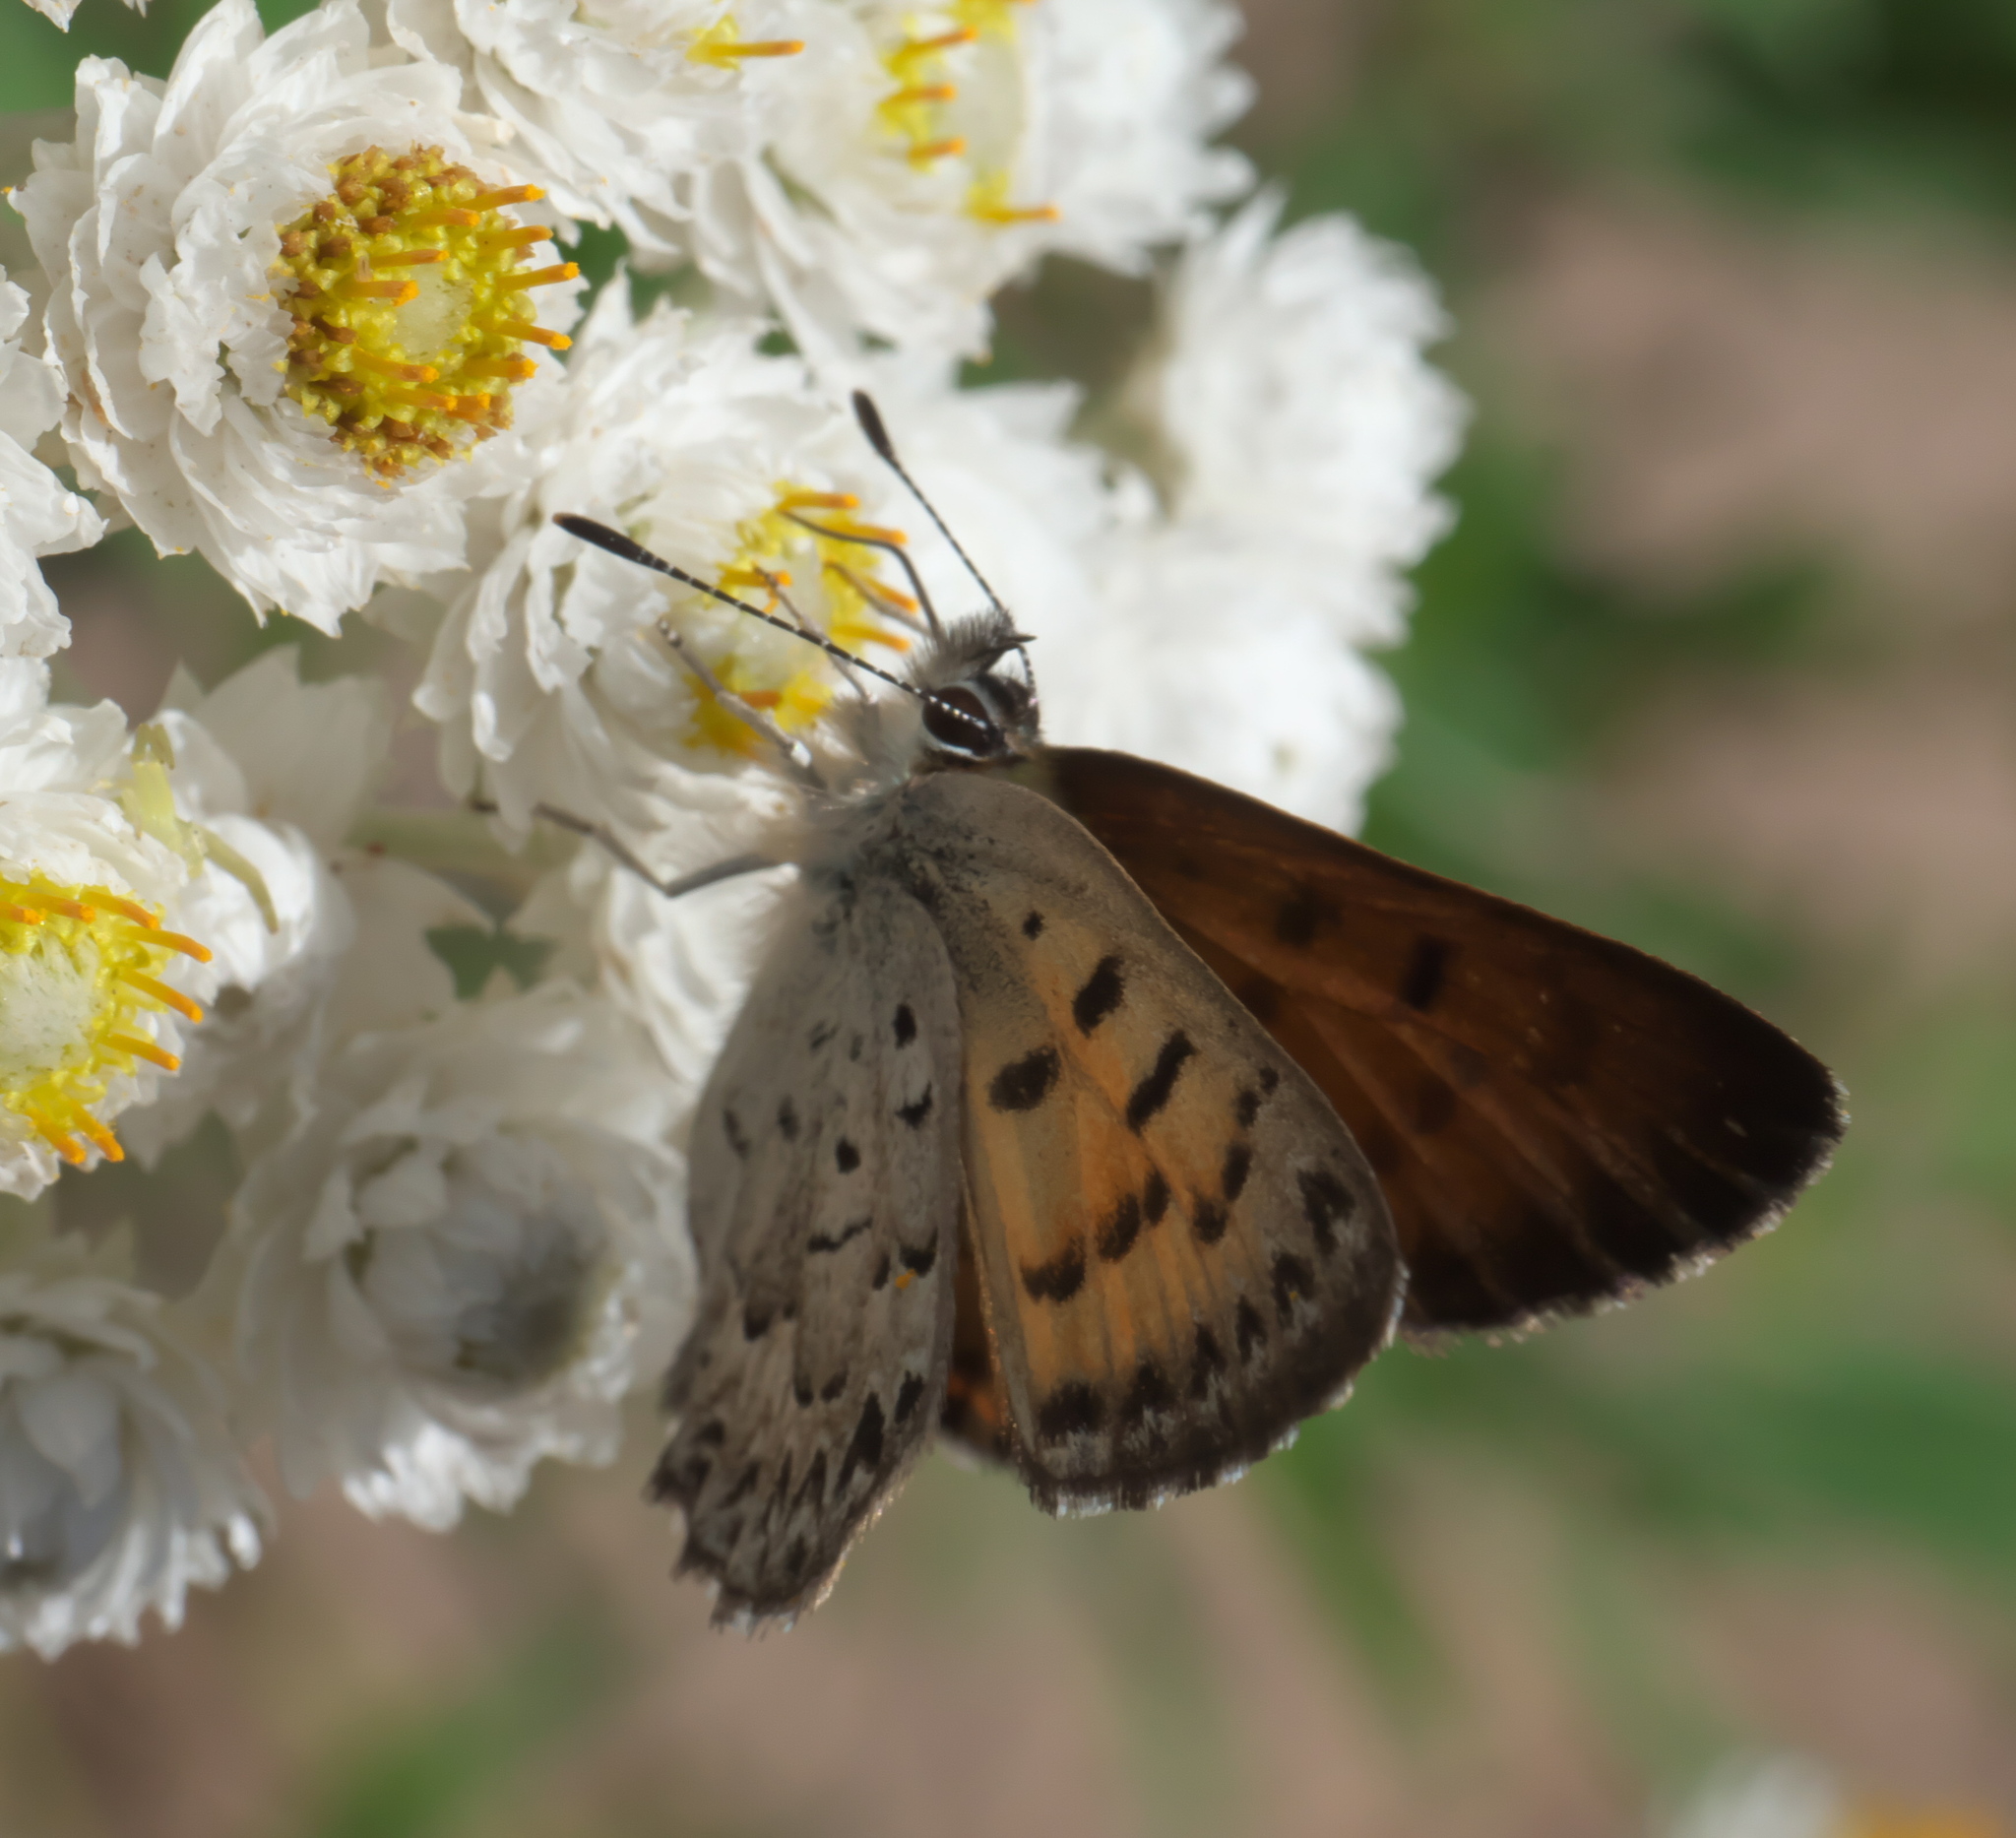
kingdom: Animalia
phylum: Arthropoda
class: Insecta
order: Lepidoptera
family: Lycaenidae
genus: Tharsalea
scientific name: Tharsalea mariposa
